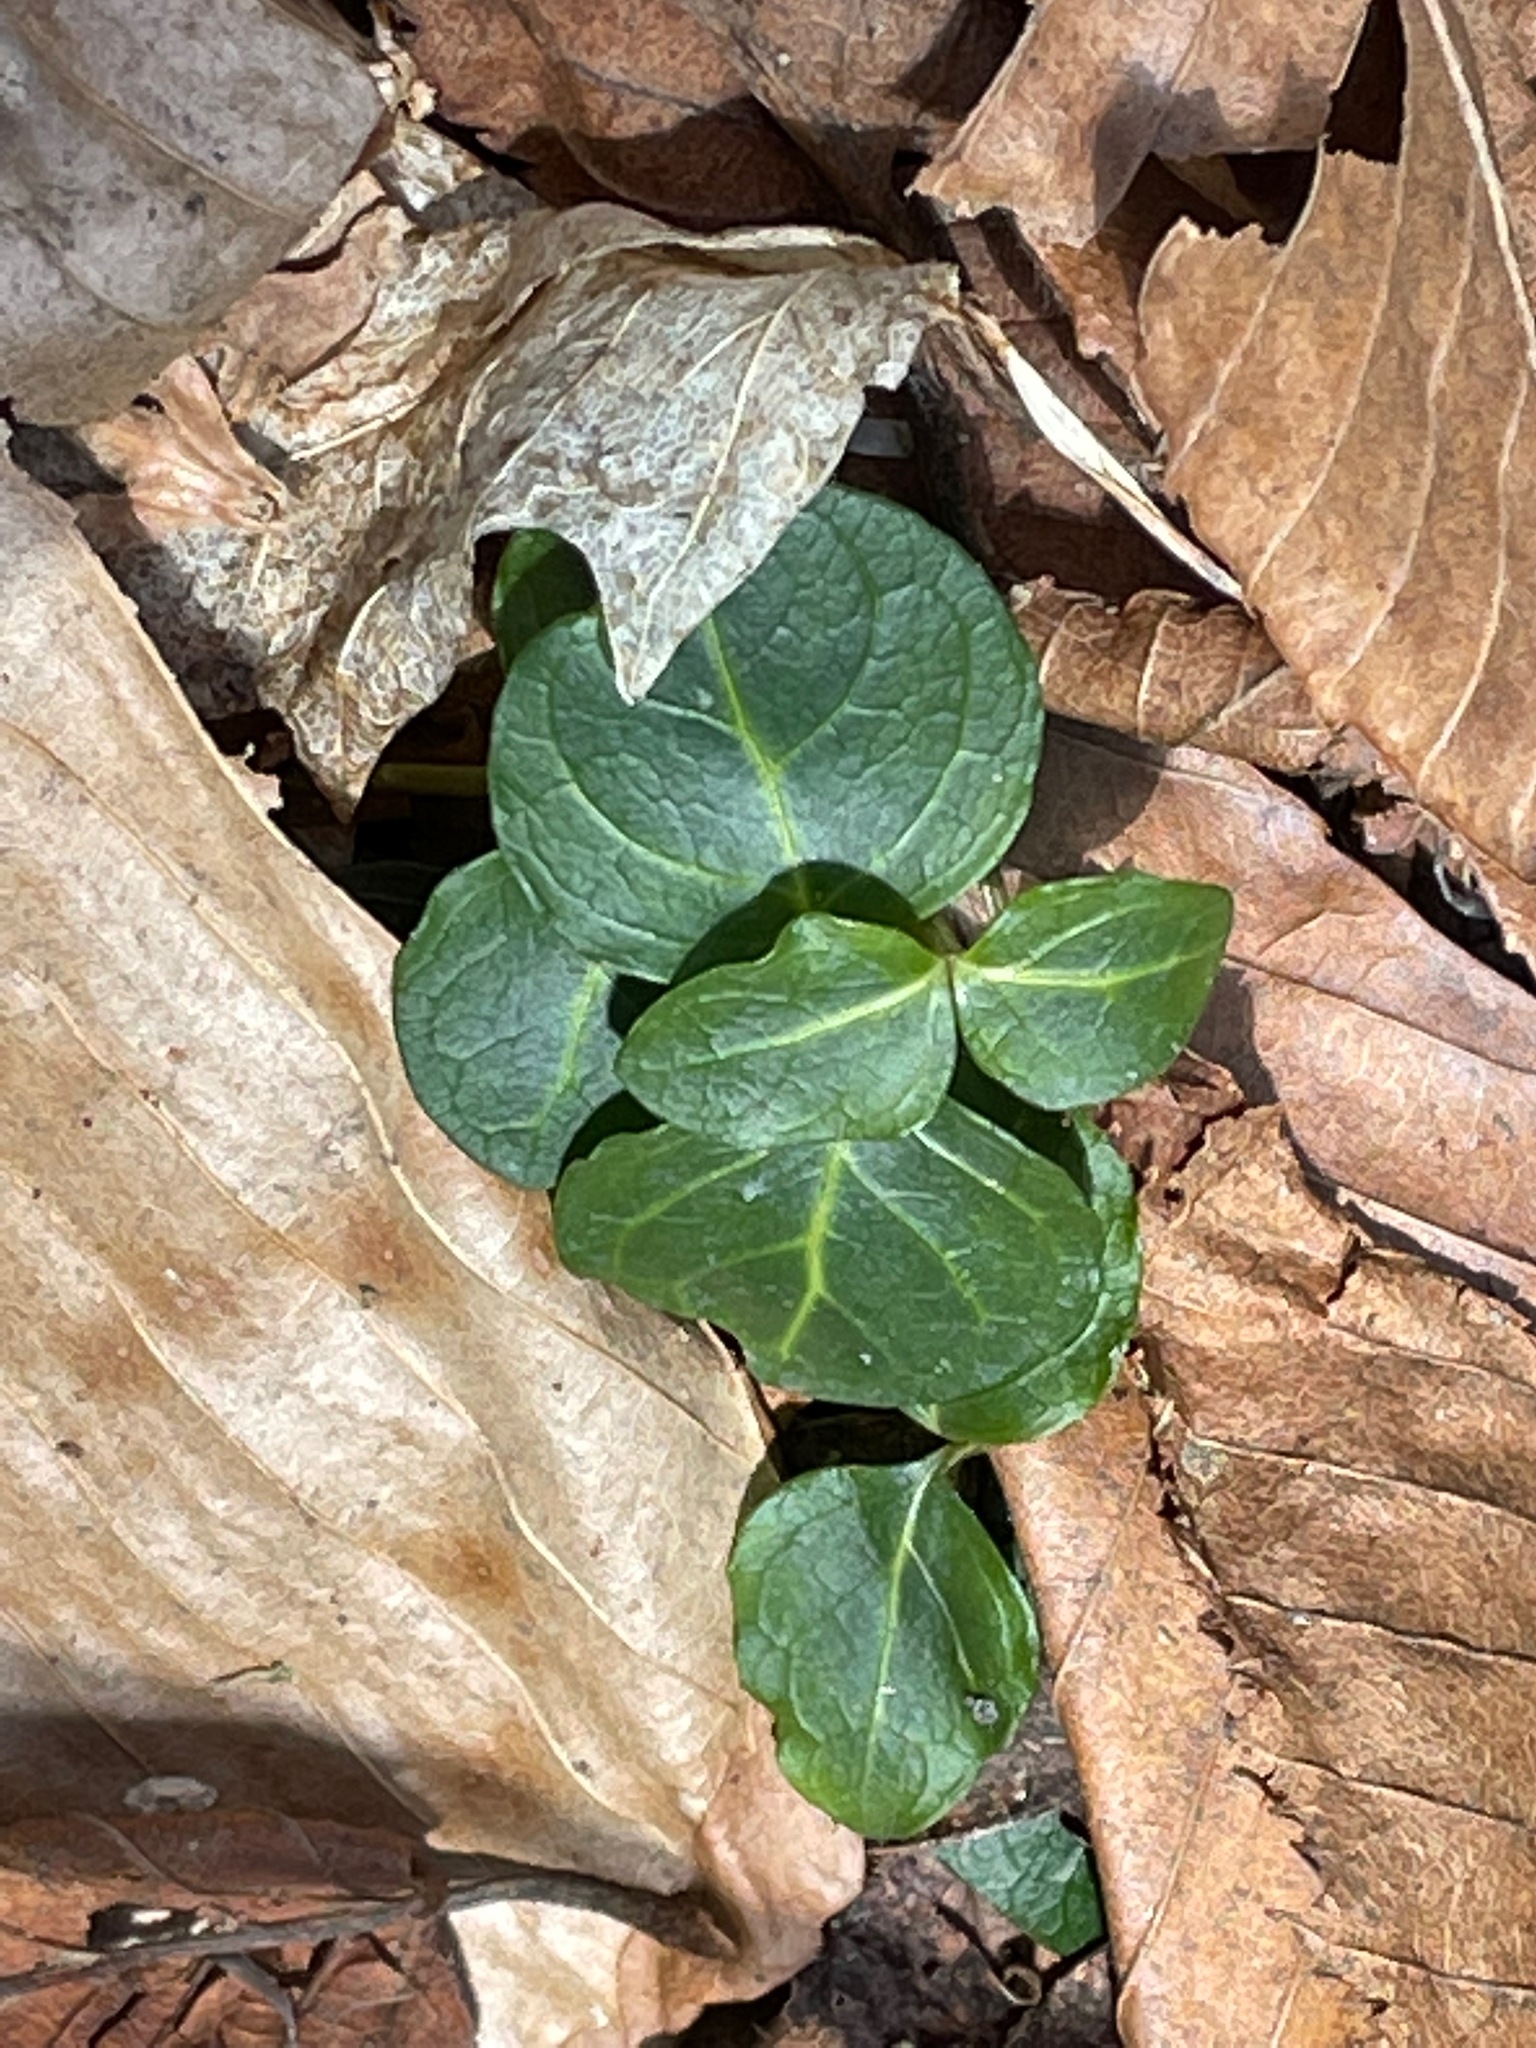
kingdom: Plantae
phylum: Tracheophyta
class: Magnoliopsida
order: Gentianales
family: Rubiaceae
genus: Mitchella
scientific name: Mitchella repens
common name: Partridge-berry
